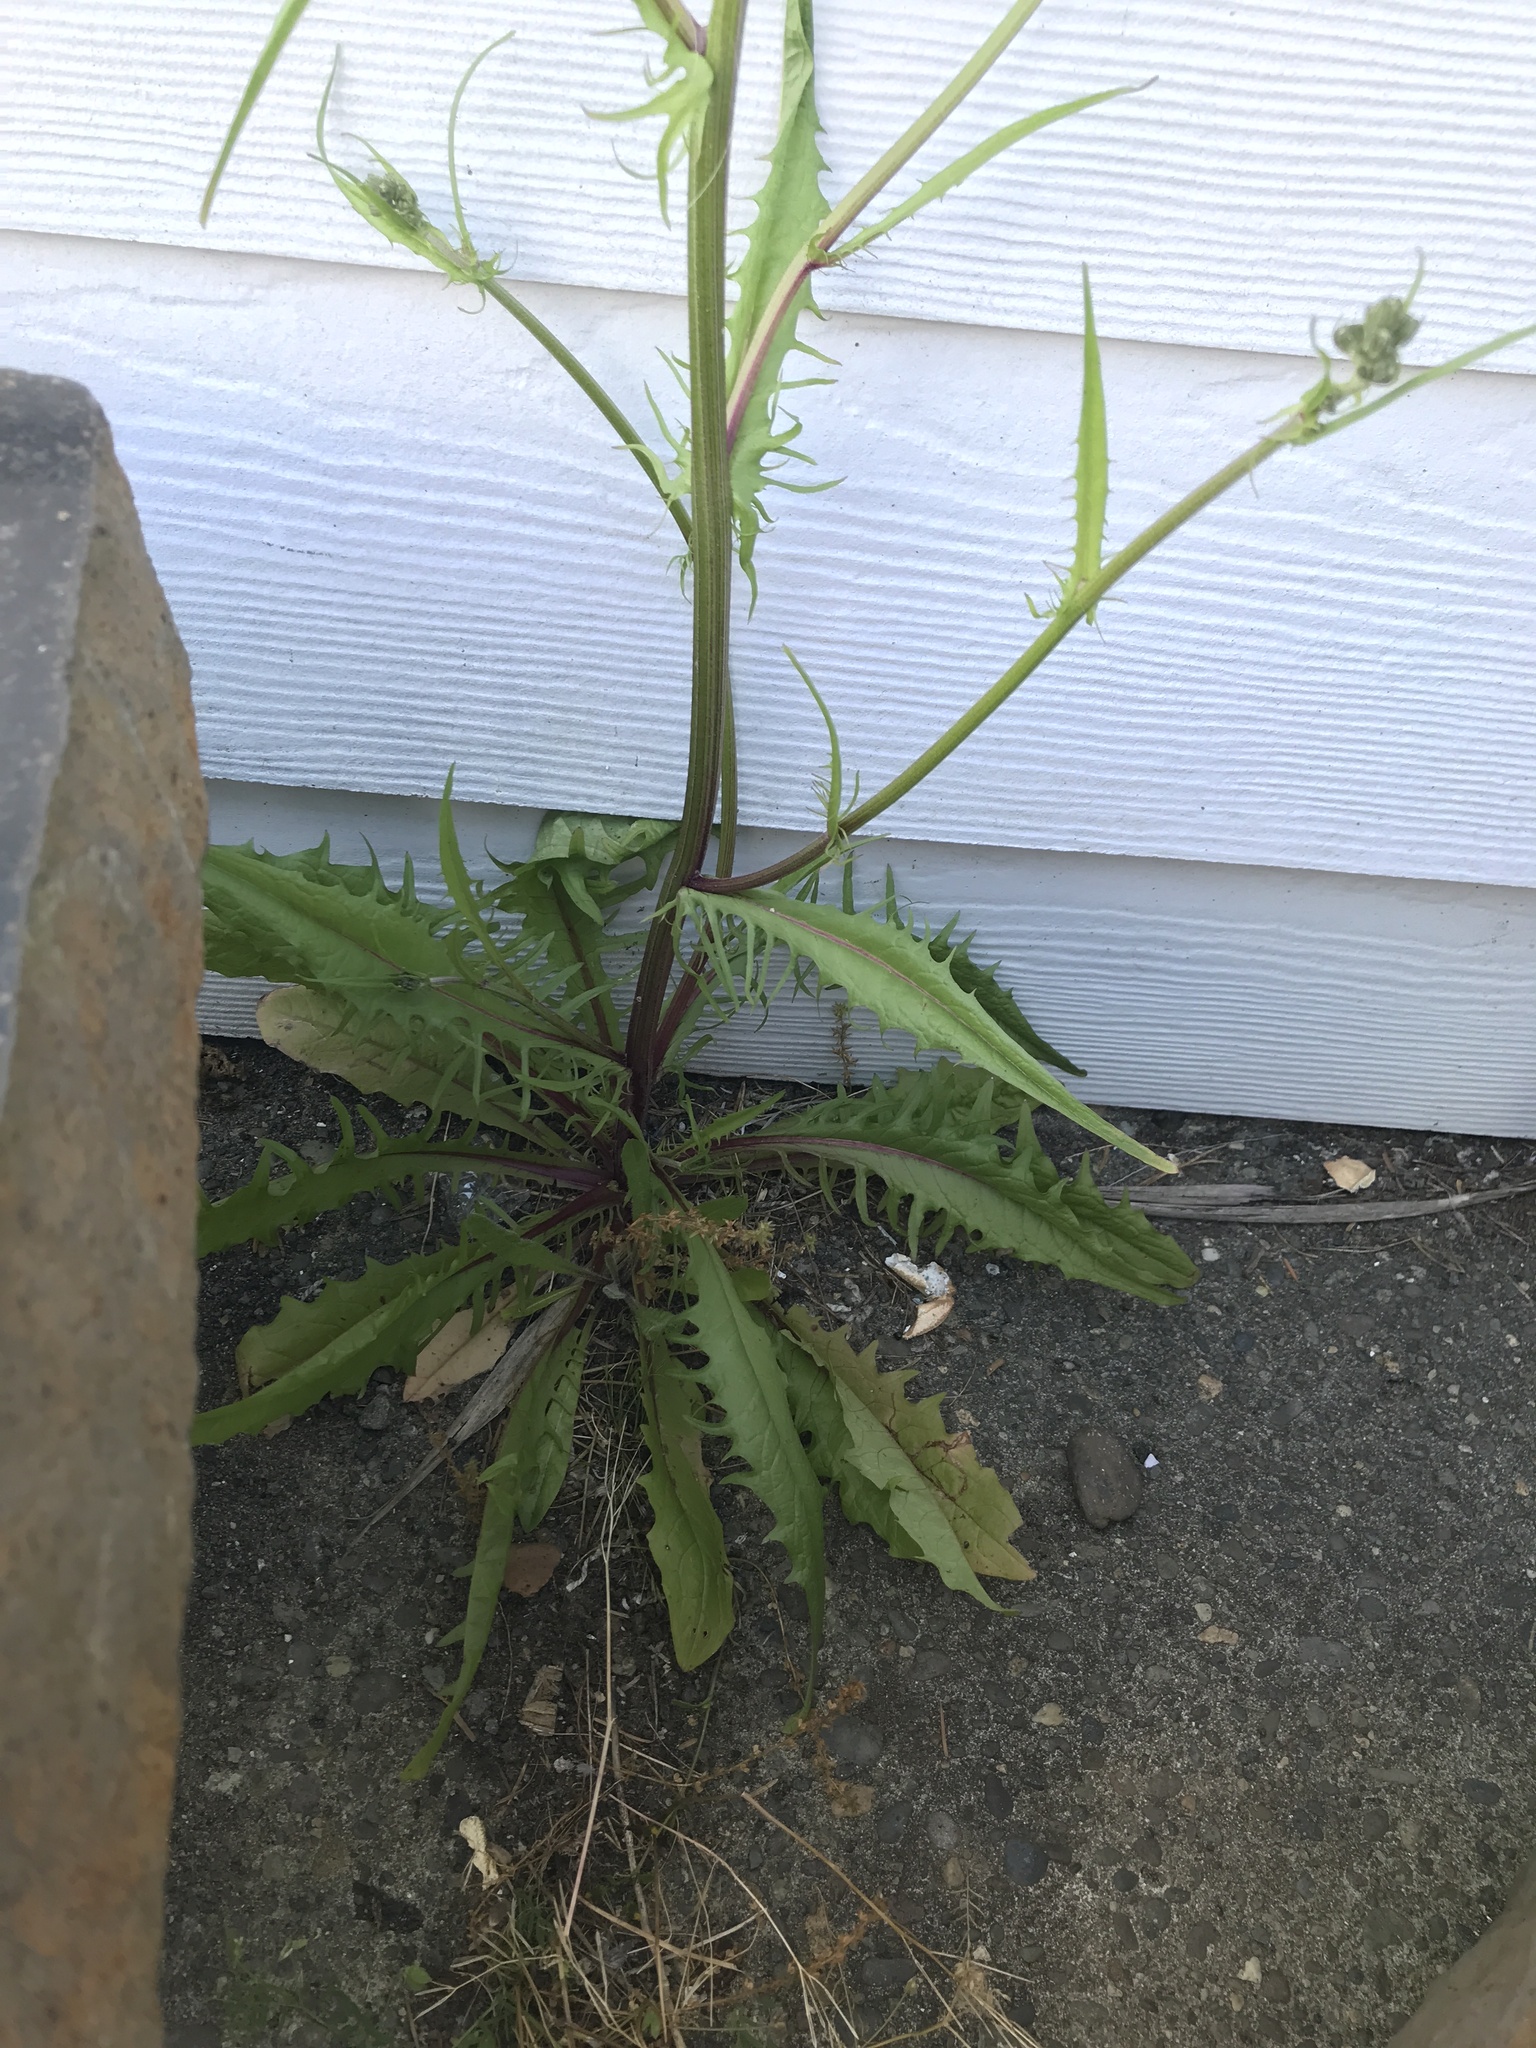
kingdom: Plantae
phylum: Tracheophyta
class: Magnoliopsida
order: Asterales
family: Asteraceae
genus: Crepis
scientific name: Crepis capillaris
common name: Smooth hawksbeard
